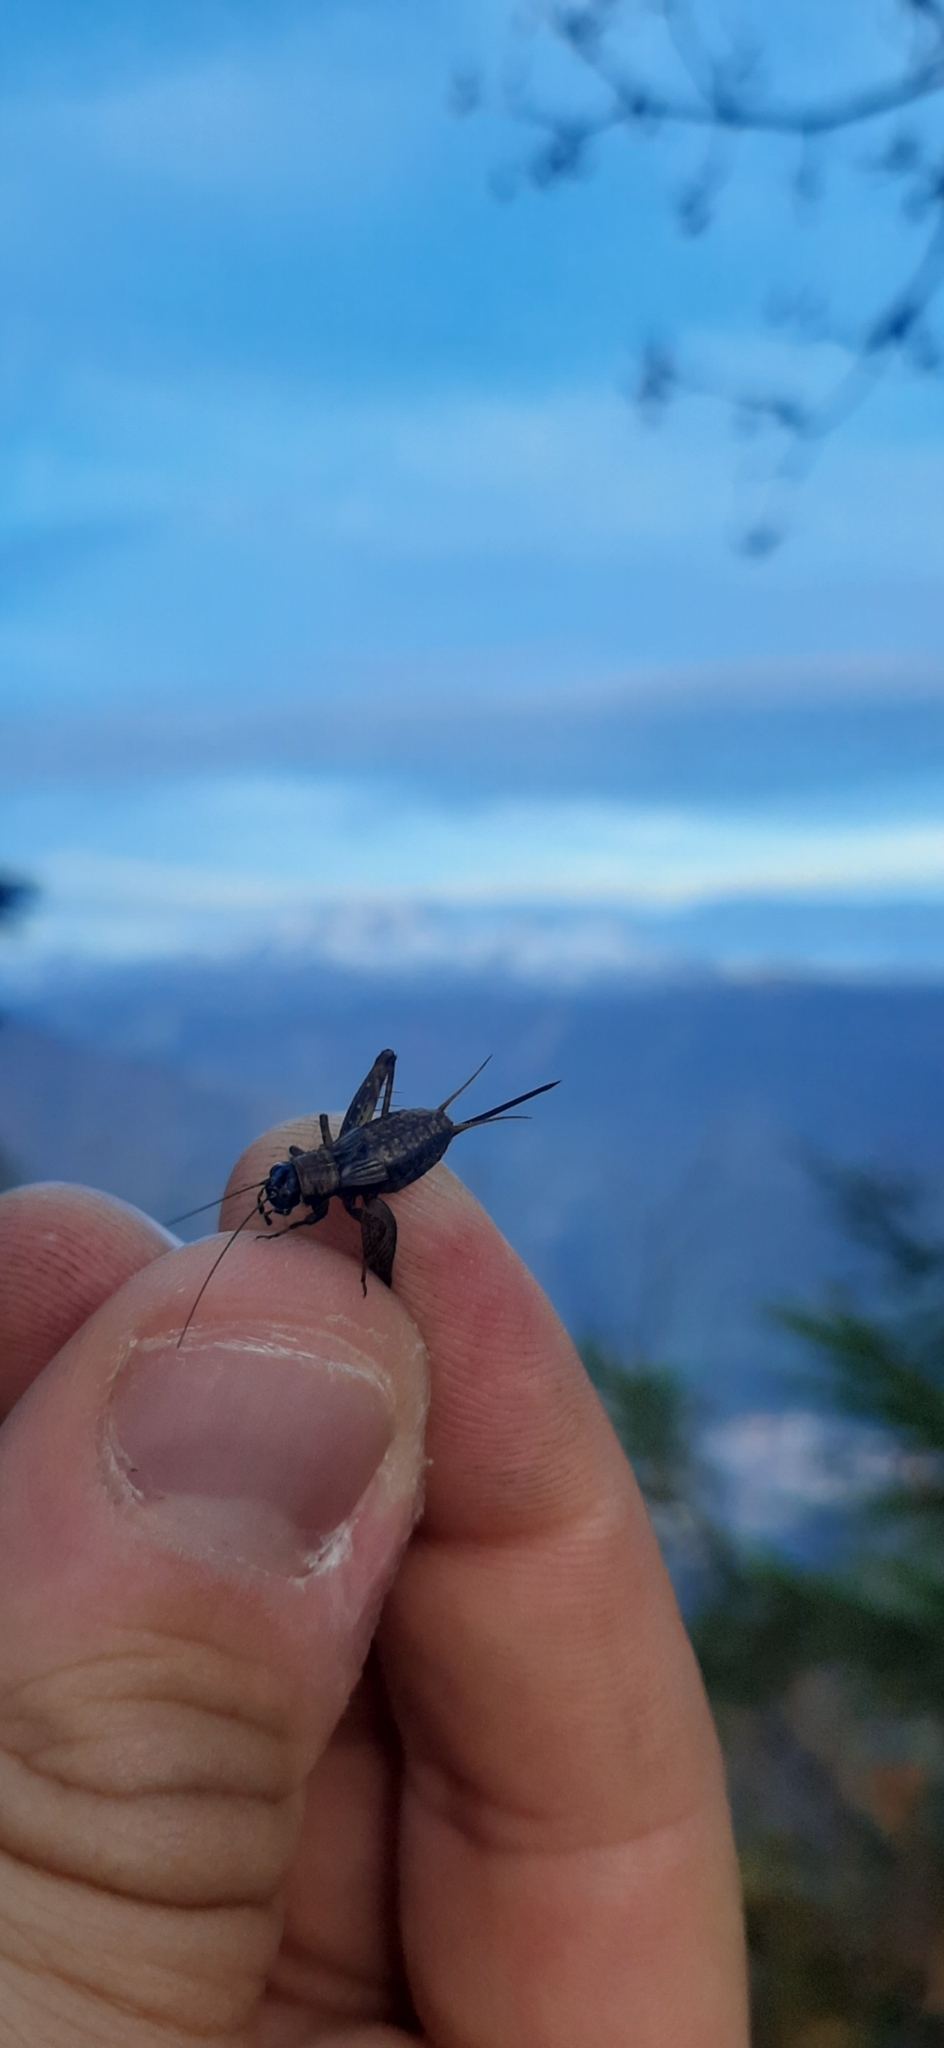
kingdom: Animalia
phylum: Arthropoda
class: Insecta
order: Orthoptera
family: Trigonidiidae
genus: Nemobius
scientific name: Nemobius sylvestris
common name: Wood-cricket
